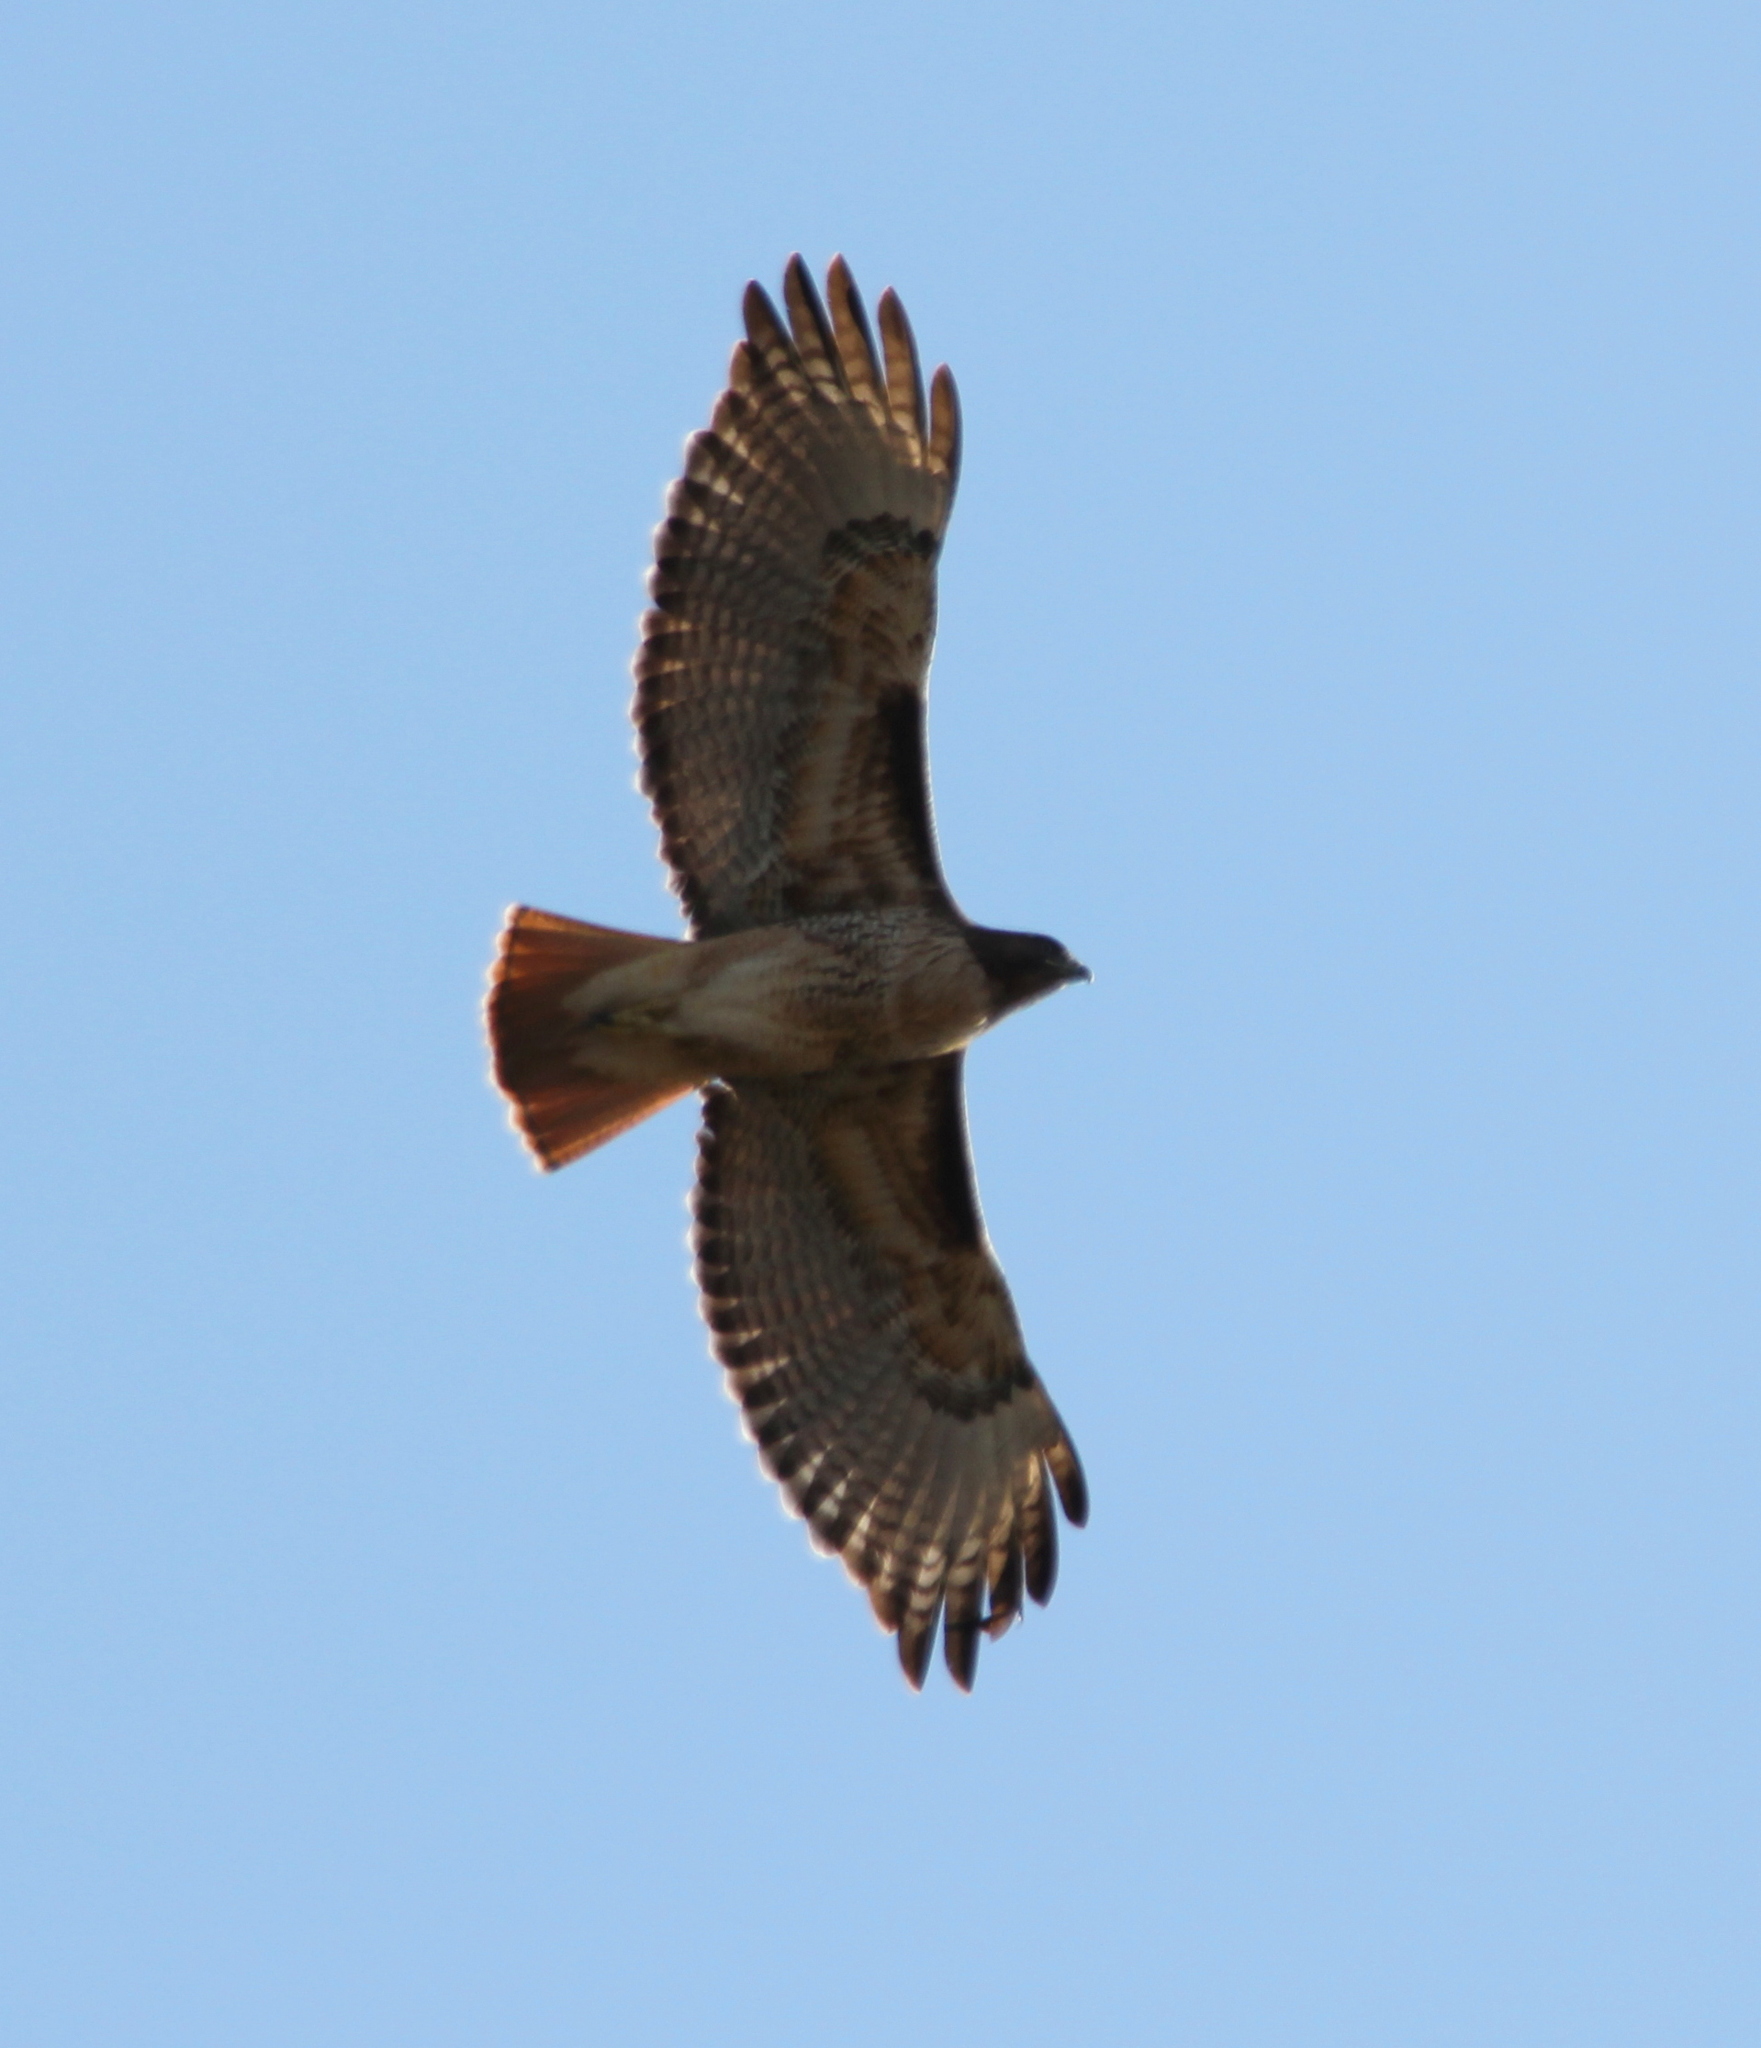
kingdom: Animalia
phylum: Chordata
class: Aves
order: Accipitriformes
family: Accipitridae
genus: Buteo
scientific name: Buteo jamaicensis
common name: Red-tailed hawk
